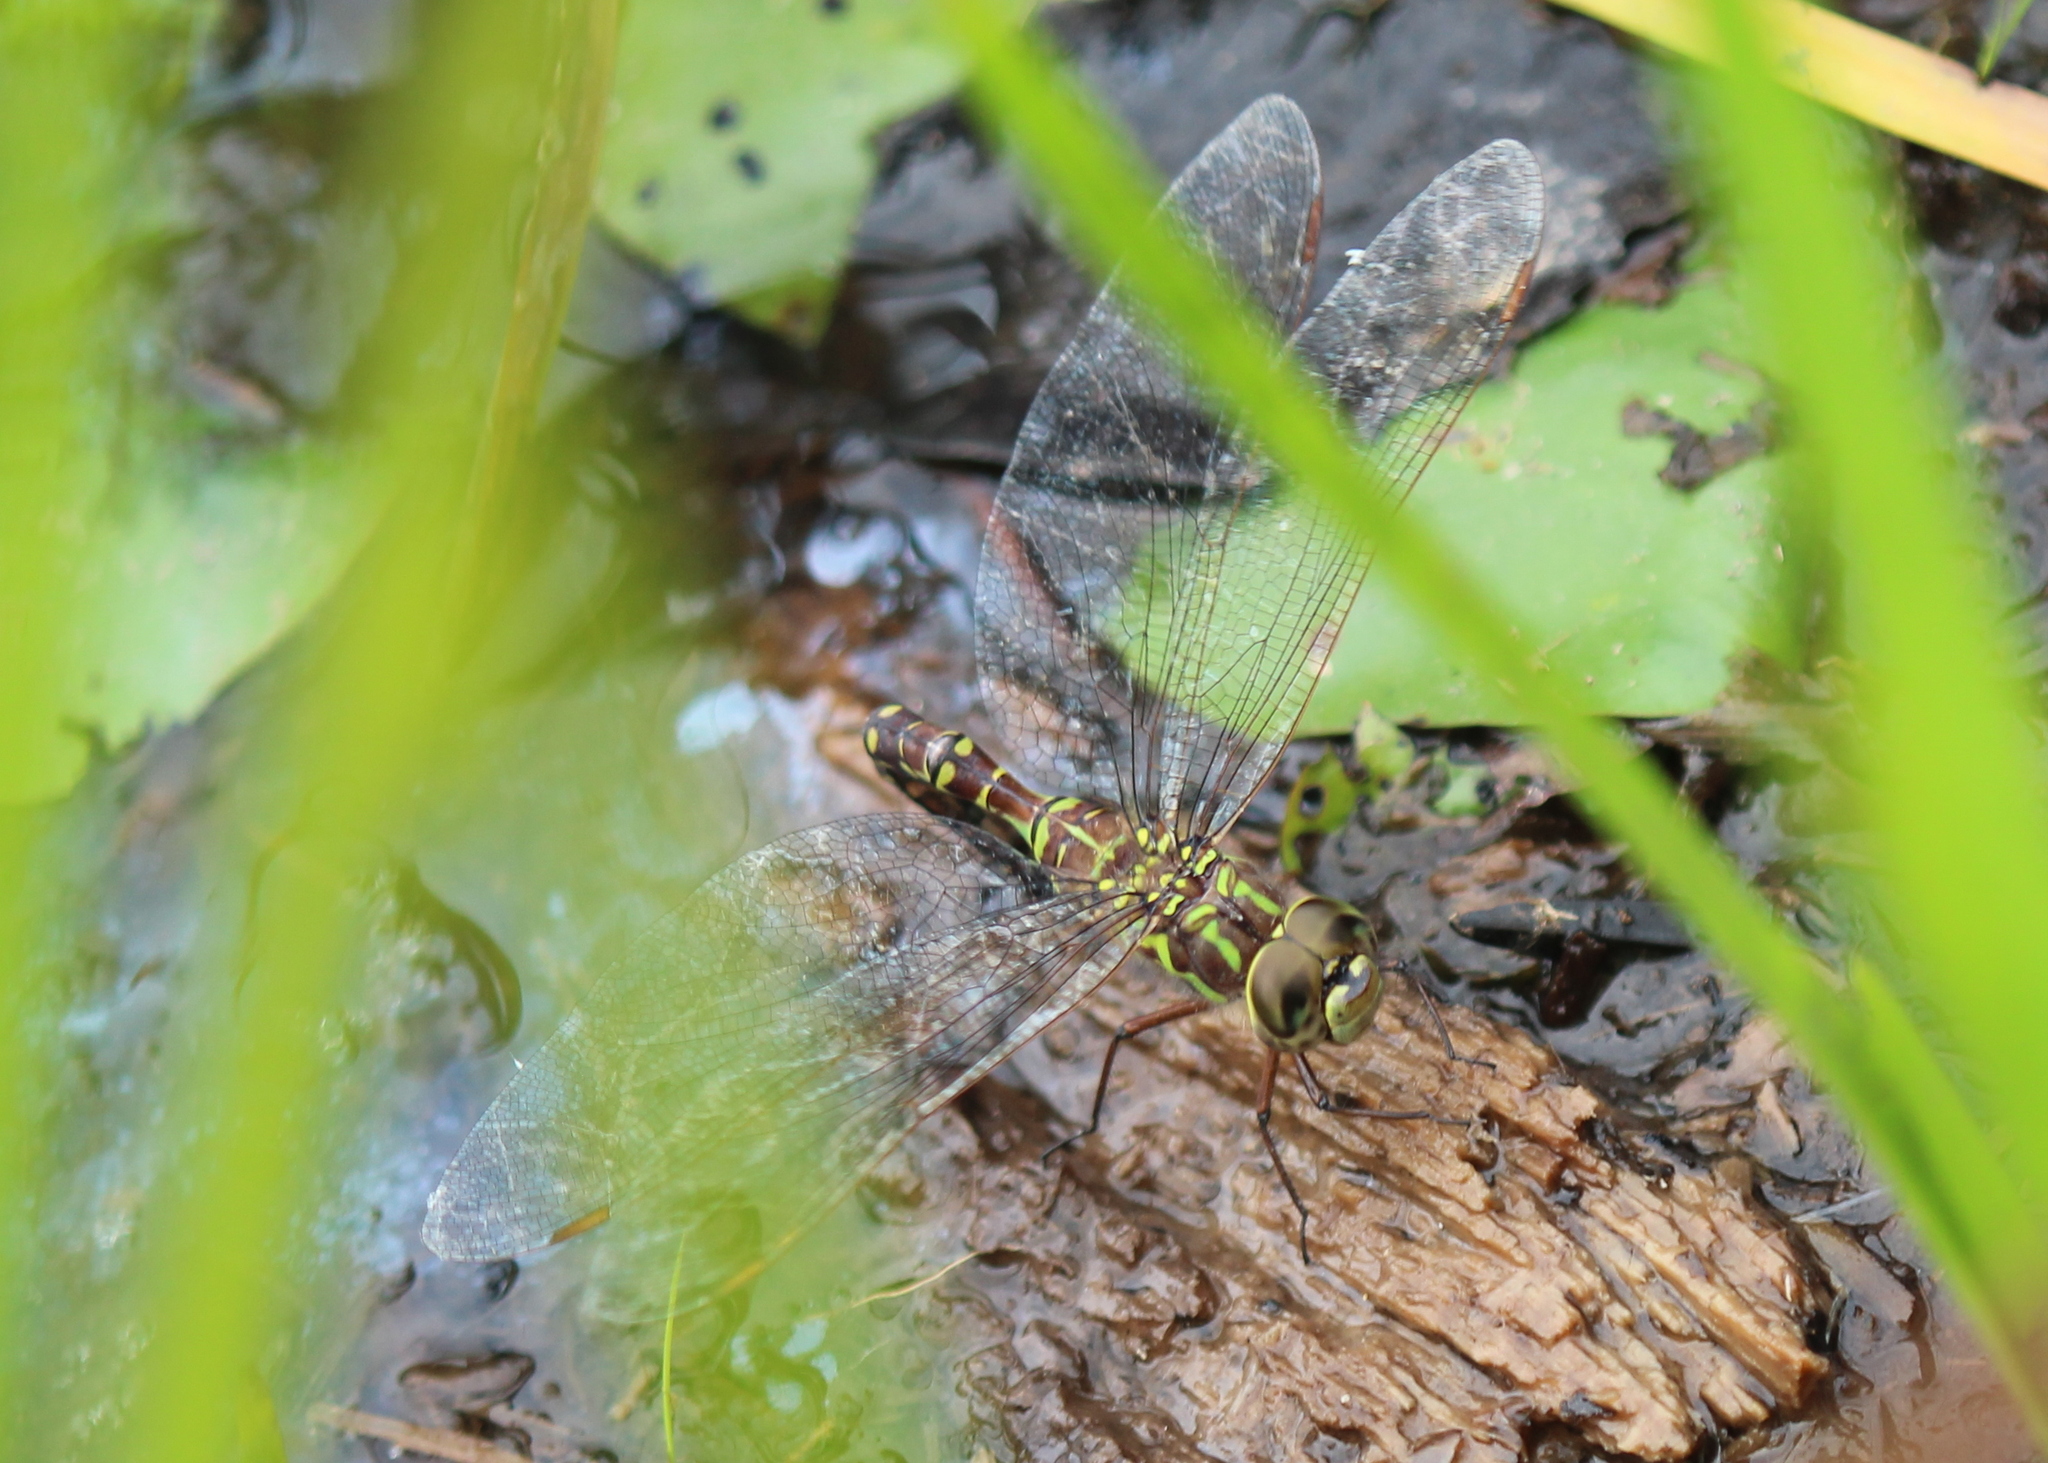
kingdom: Animalia
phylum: Arthropoda
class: Insecta
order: Odonata
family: Aeshnidae
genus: Aeshna
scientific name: Aeshna canadensis
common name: Canada darner
